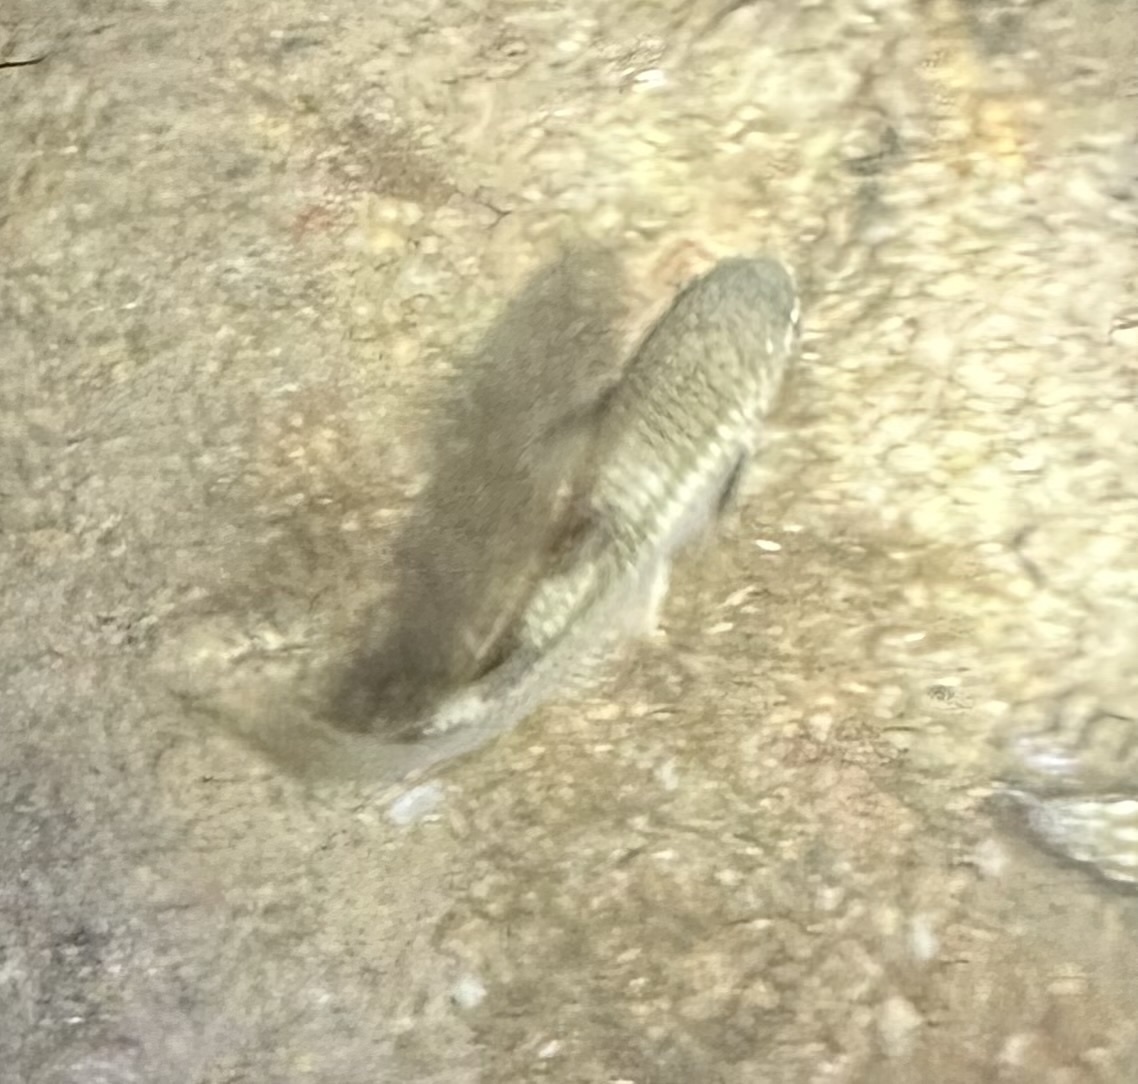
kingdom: Animalia
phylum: Chordata
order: Mugiliformes
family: Mugilidae
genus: Ellochelon
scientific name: Ellochelon vaigiensis
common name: Squaretail mullet
